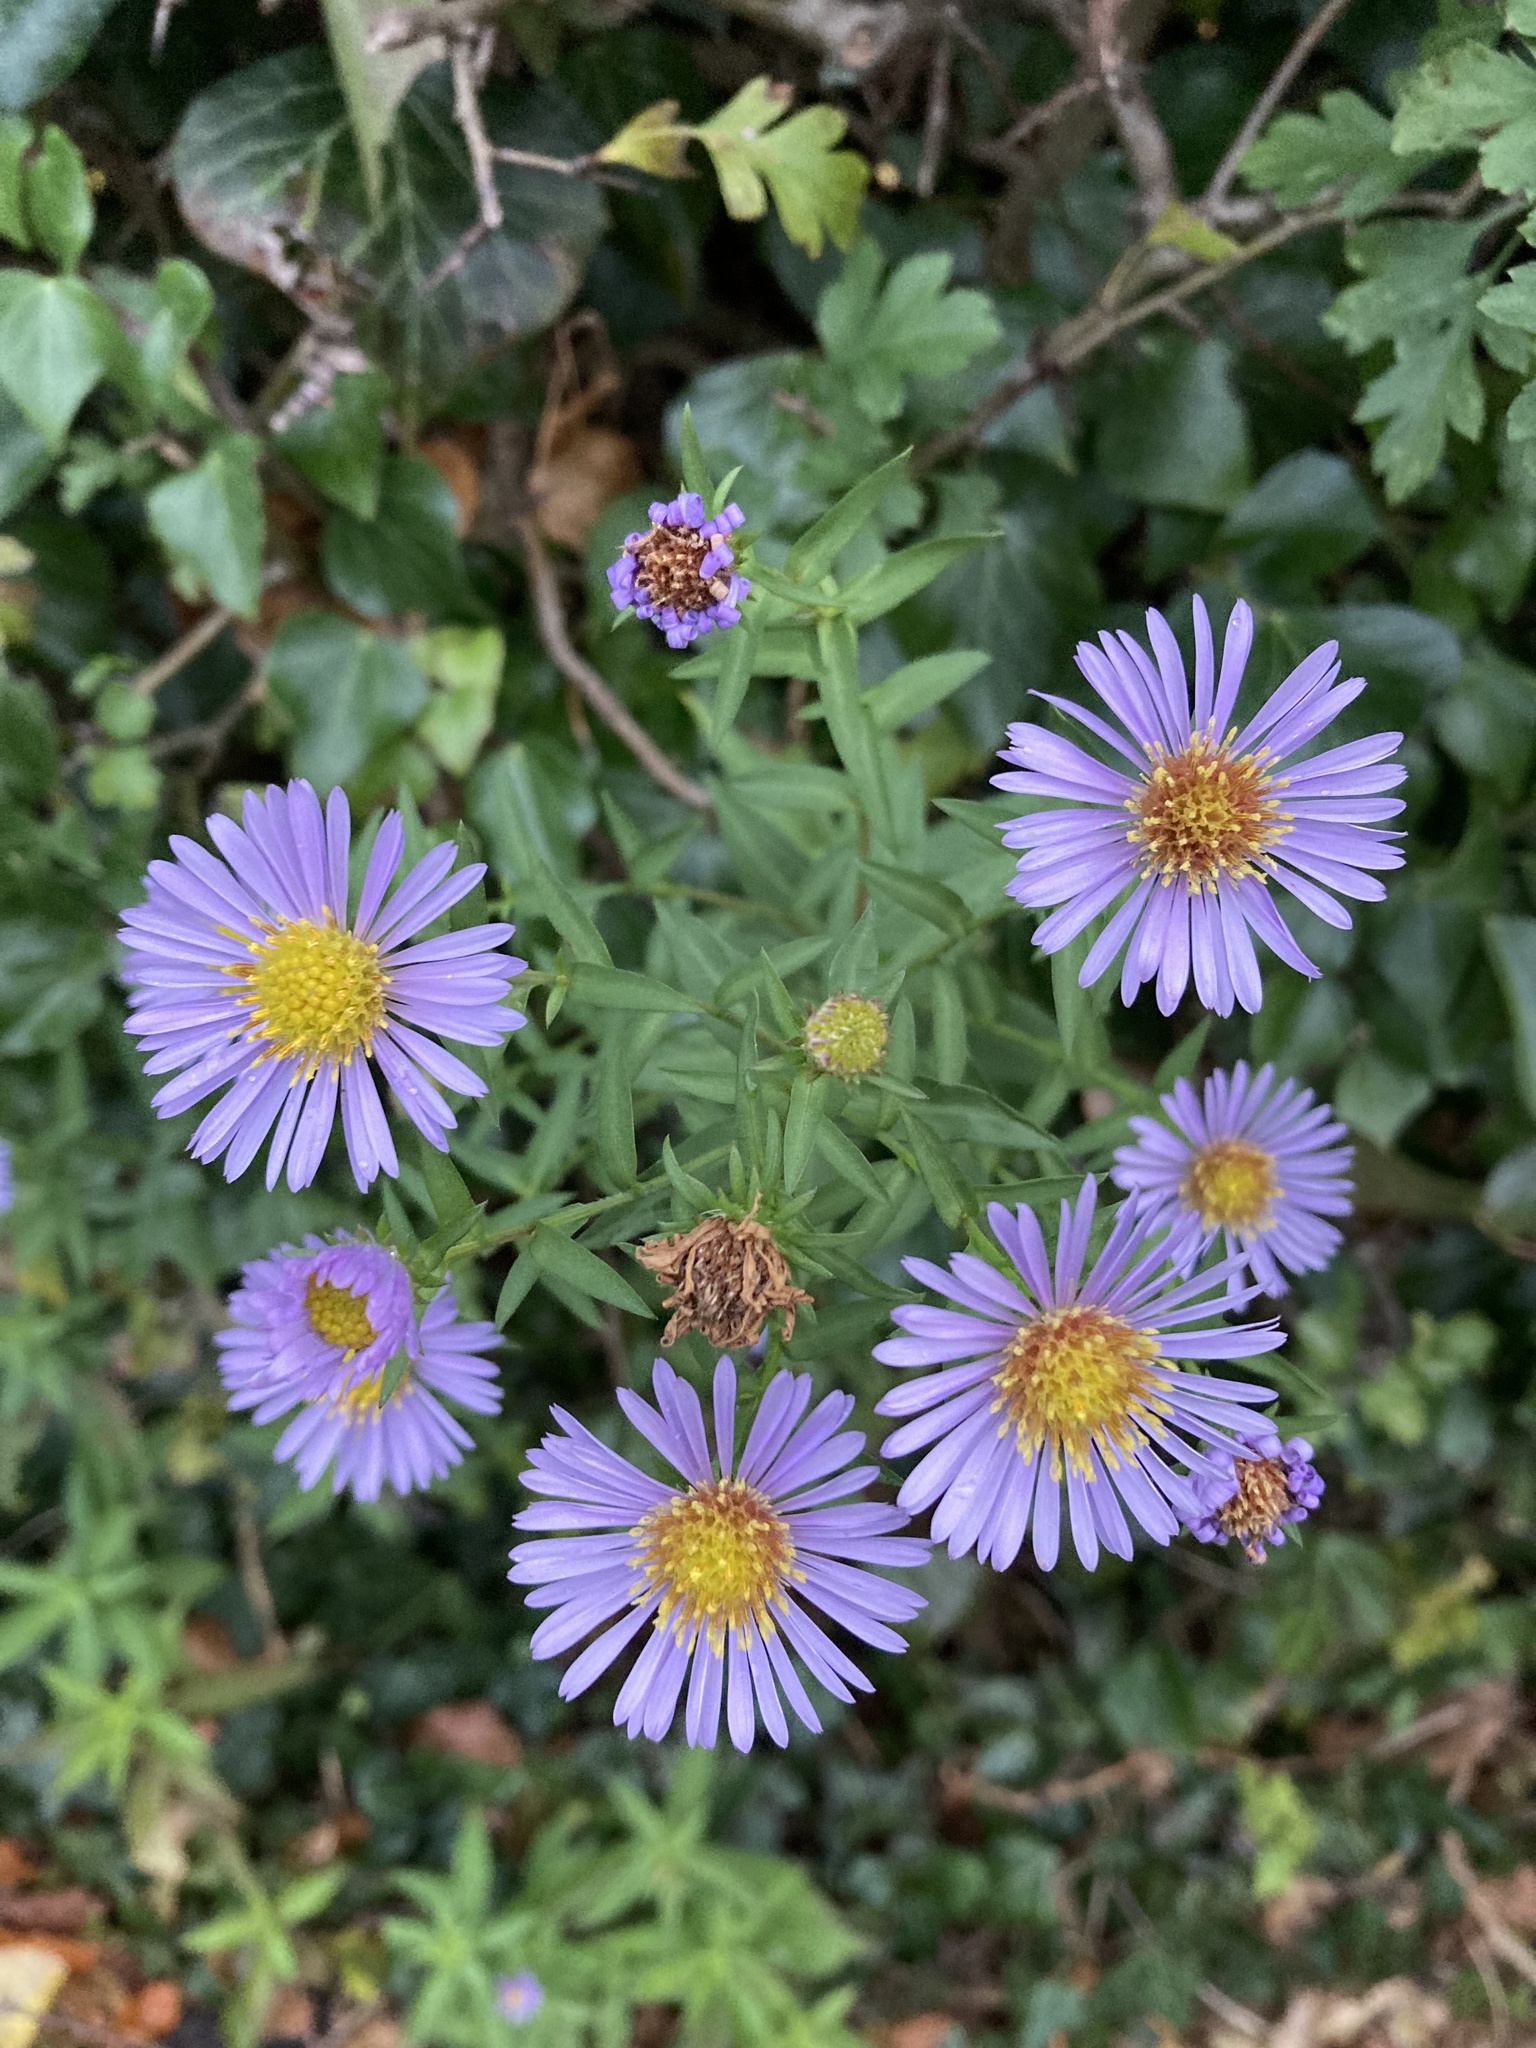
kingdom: Plantae
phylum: Tracheophyta
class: Magnoliopsida
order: Asterales
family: Asteraceae
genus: Symphyotrichum
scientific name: Symphyotrichum novi-belgii
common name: Michaelmas daisy
